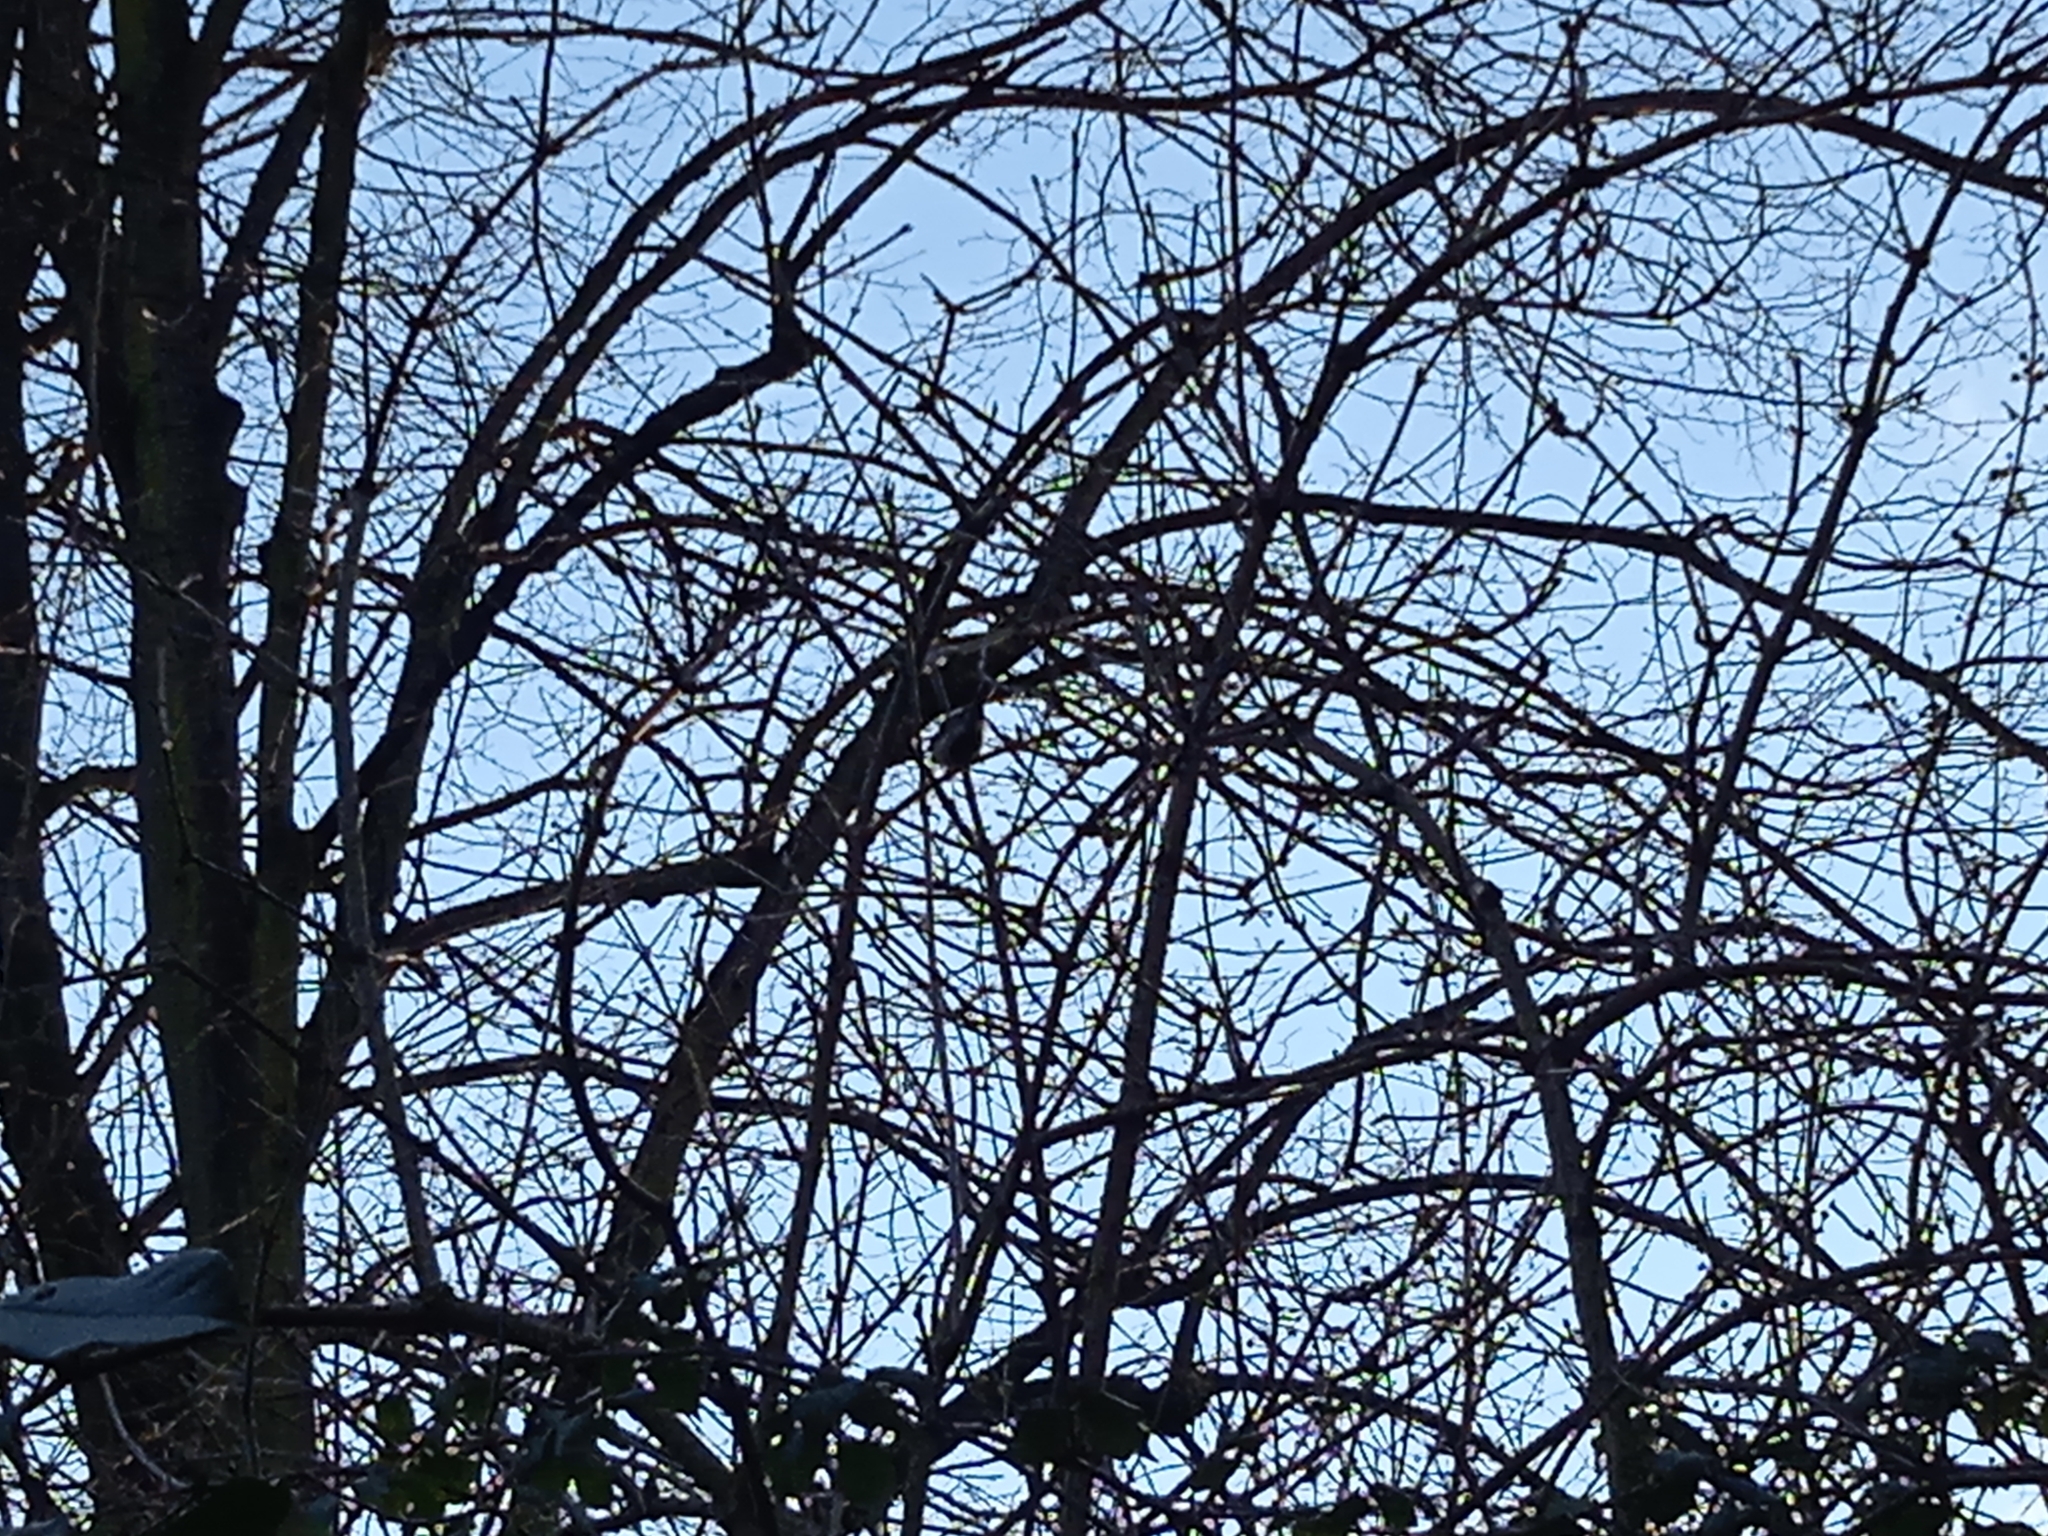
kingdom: Animalia
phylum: Chordata
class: Aves
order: Passeriformes
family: Paridae
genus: Parus
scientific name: Parus major
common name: Great tit
